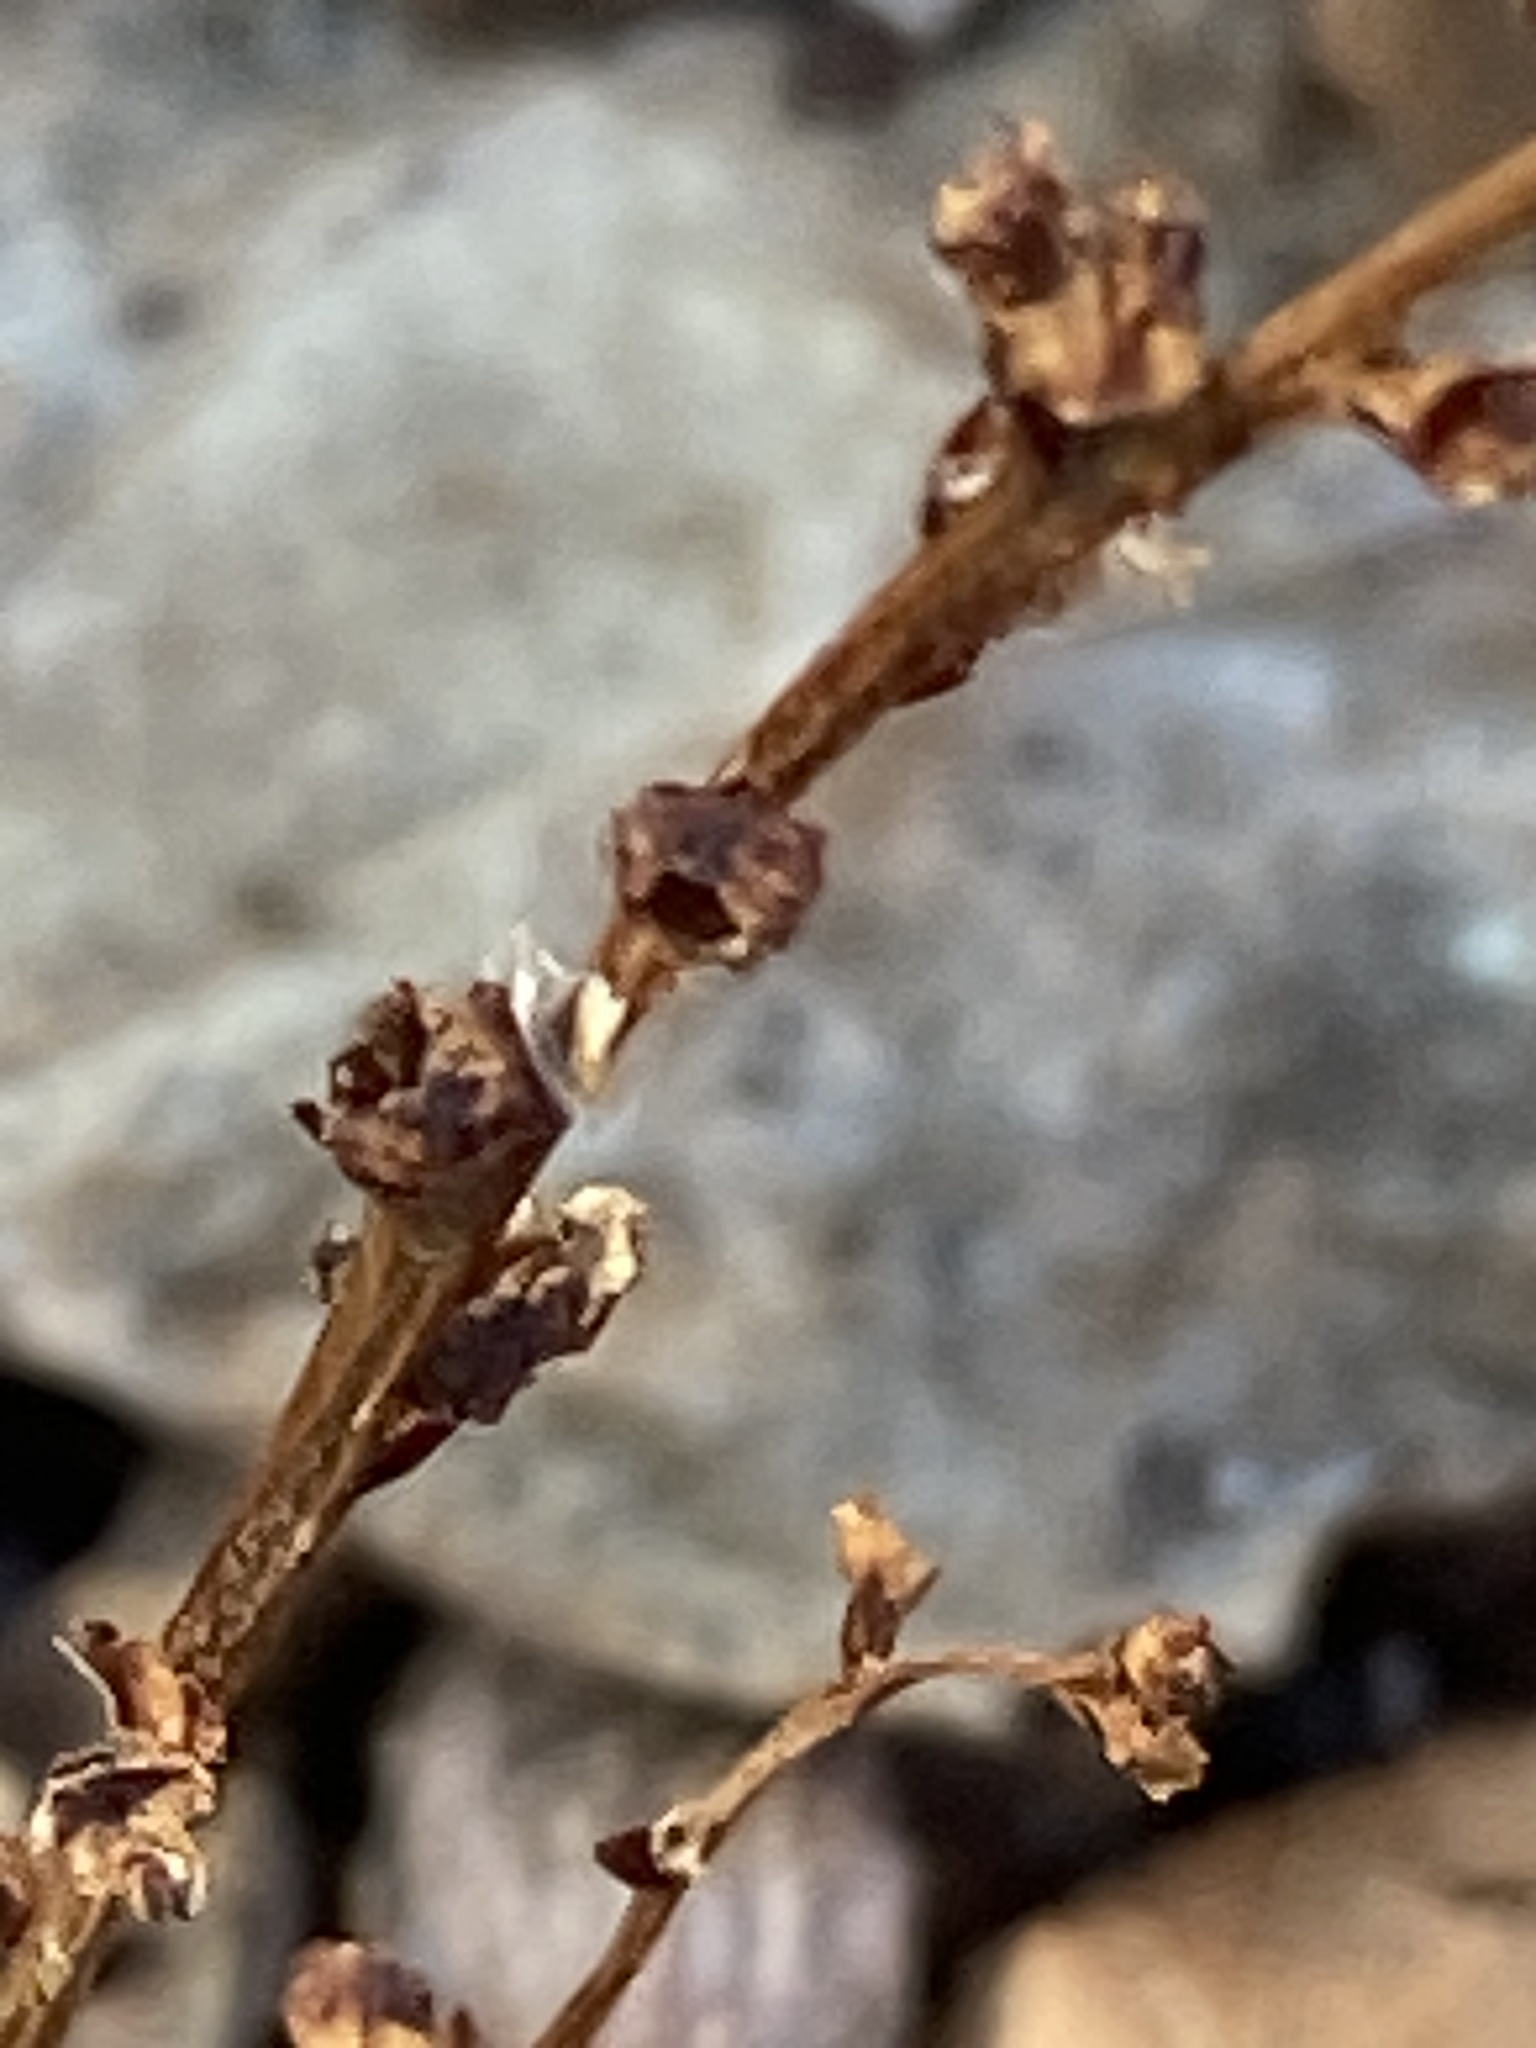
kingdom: Plantae
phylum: Tracheophyta
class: Magnoliopsida
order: Lamiales
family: Orobanchaceae
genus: Epifagus
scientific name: Epifagus virginiana
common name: Beechdrops
